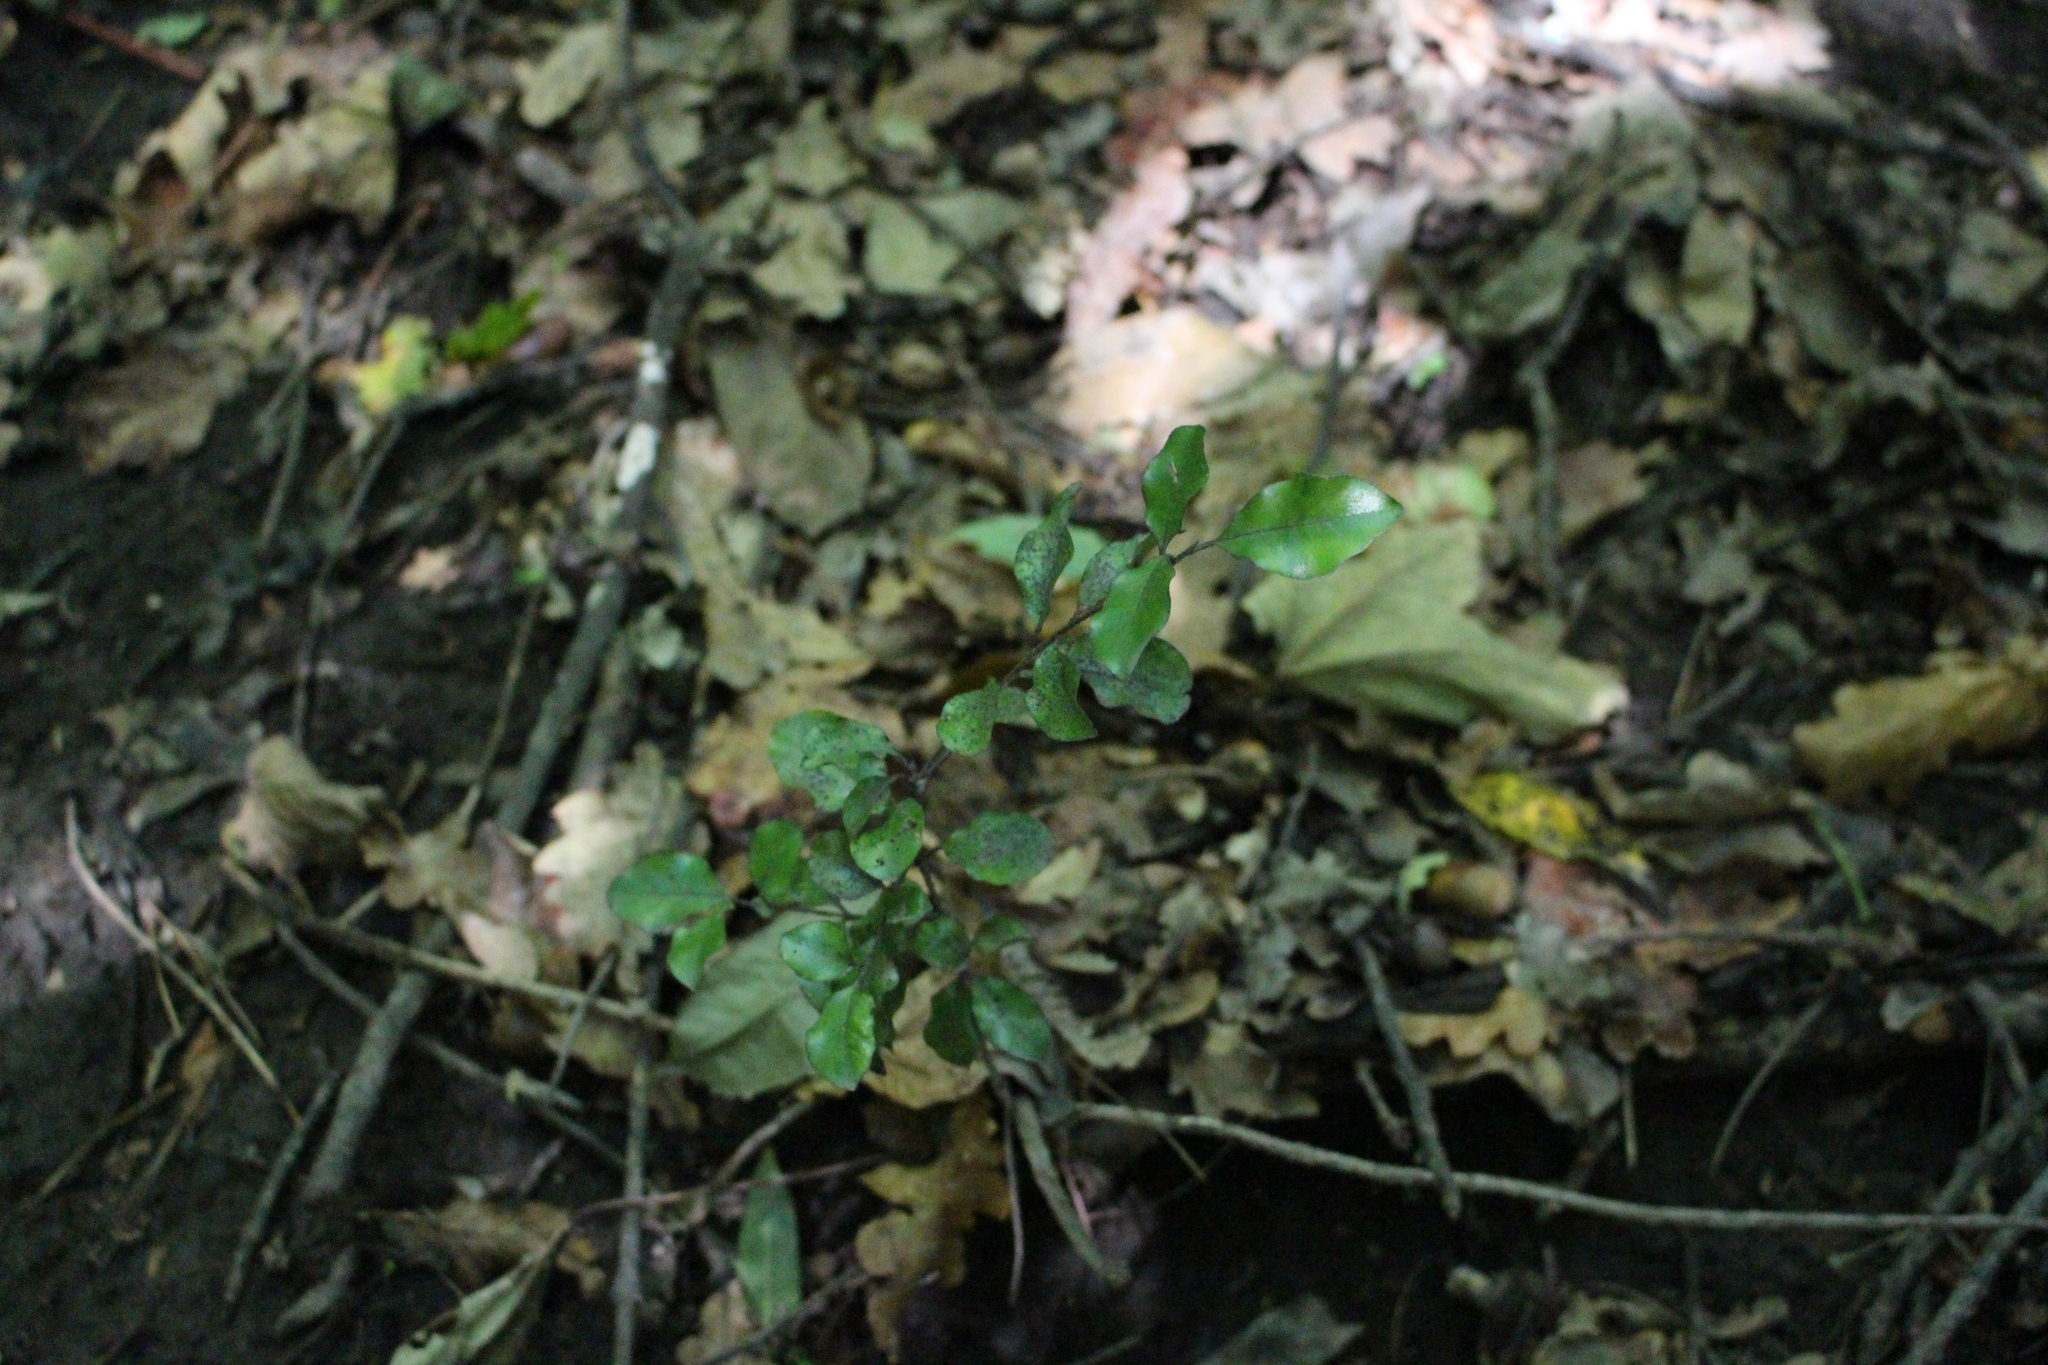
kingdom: Plantae
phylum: Tracheophyta
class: Magnoliopsida
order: Apiales
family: Pittosporaceae
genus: Pittosporum
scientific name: Pittosporum tenuifolium
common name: Kohuhu
